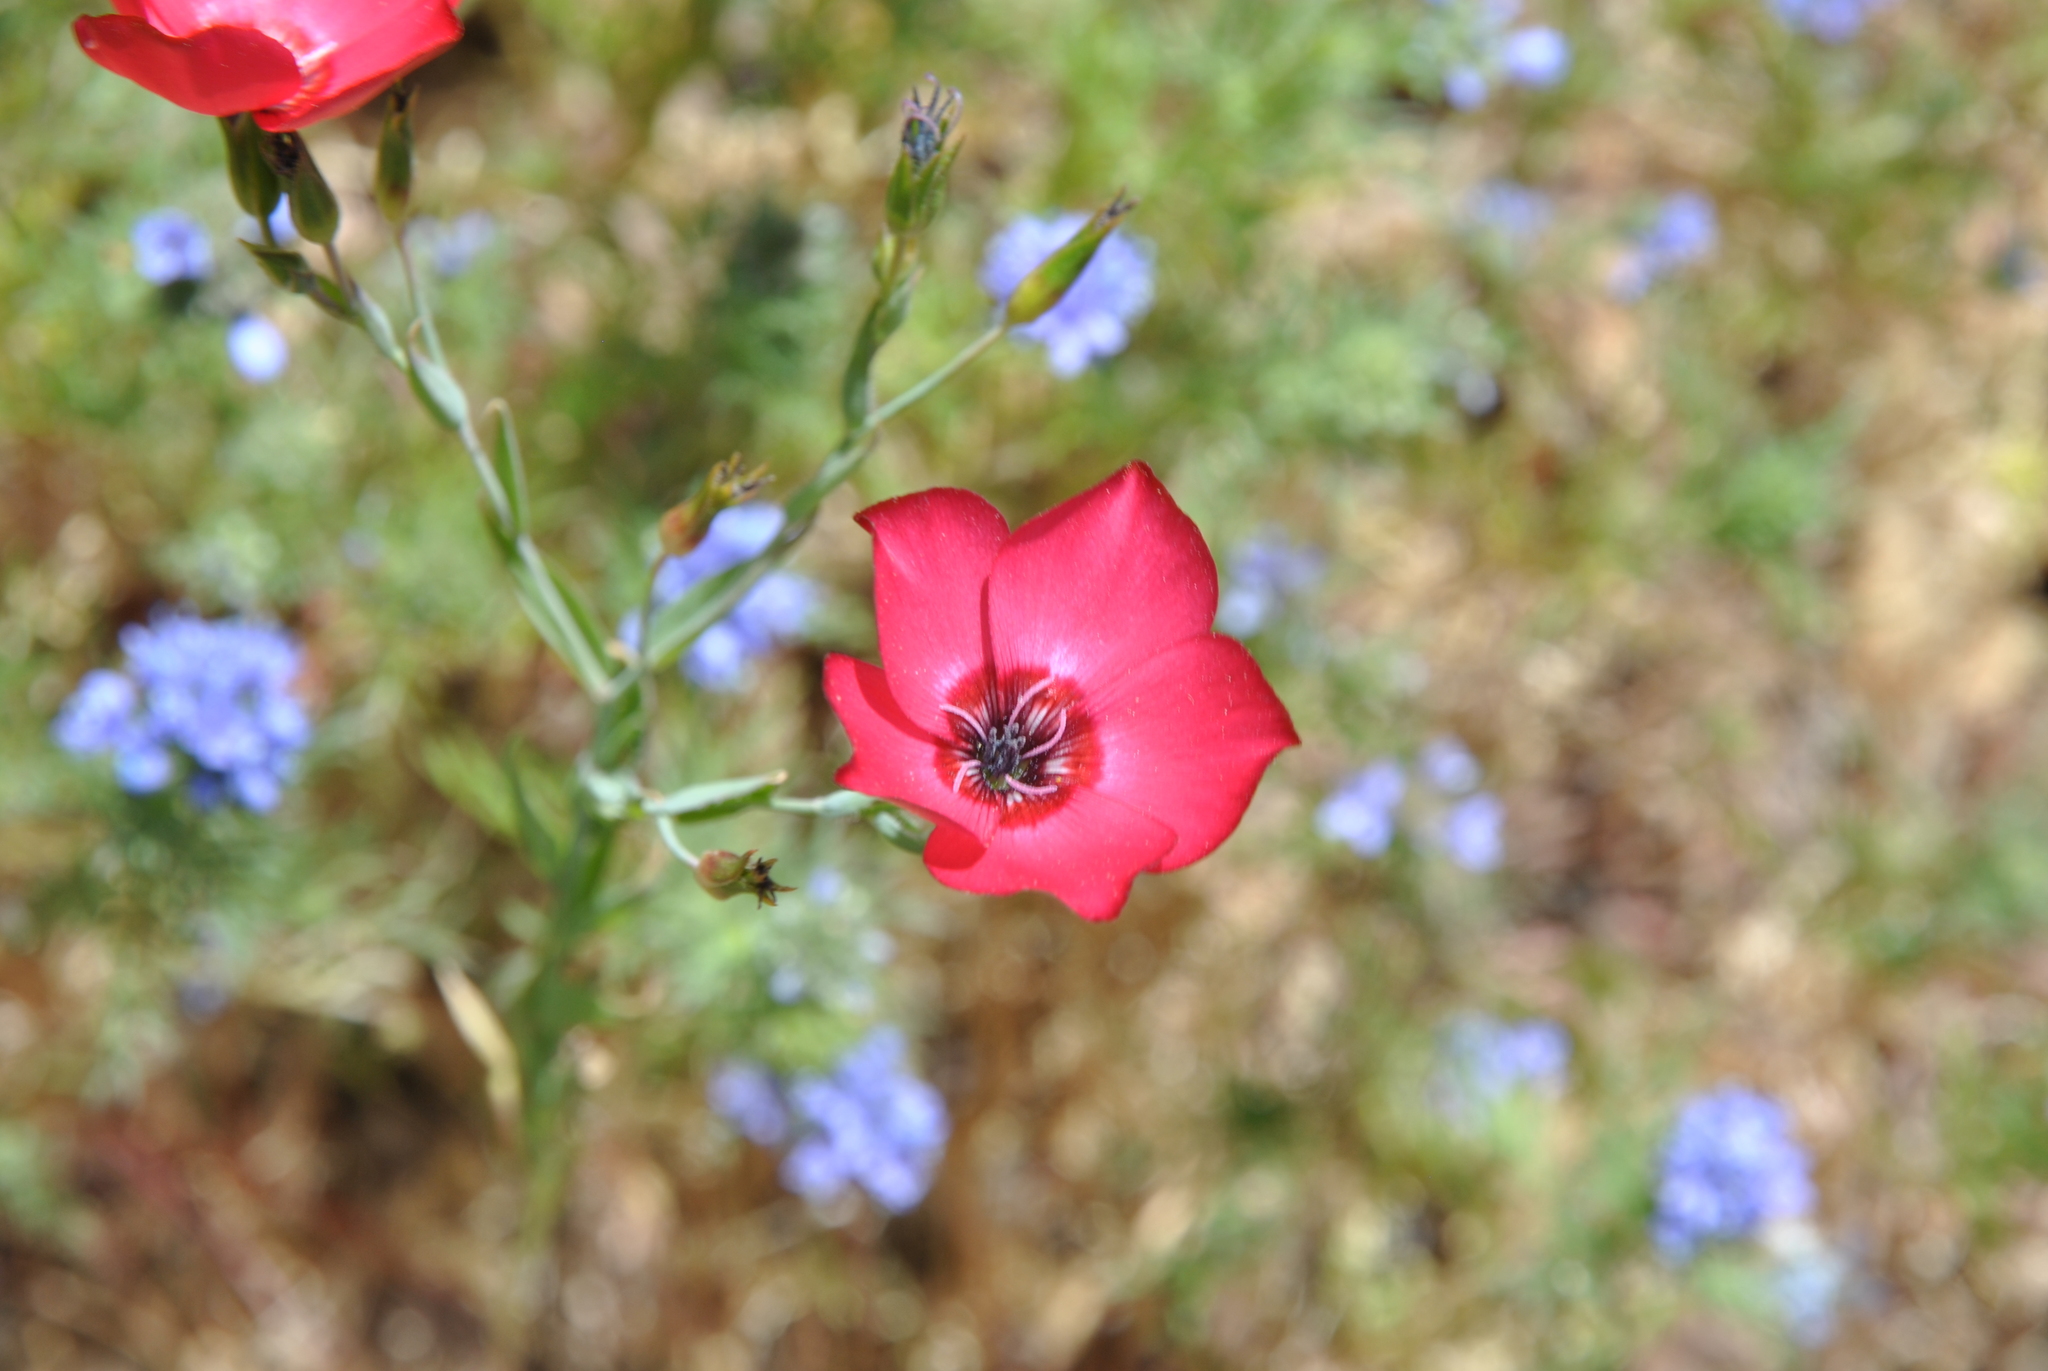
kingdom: Plantae
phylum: Tracheophyta
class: Magnoliopsida
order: Malpighiales
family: Linaceae
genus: Linum
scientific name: Linum grandiflorum
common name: Crimson flax
